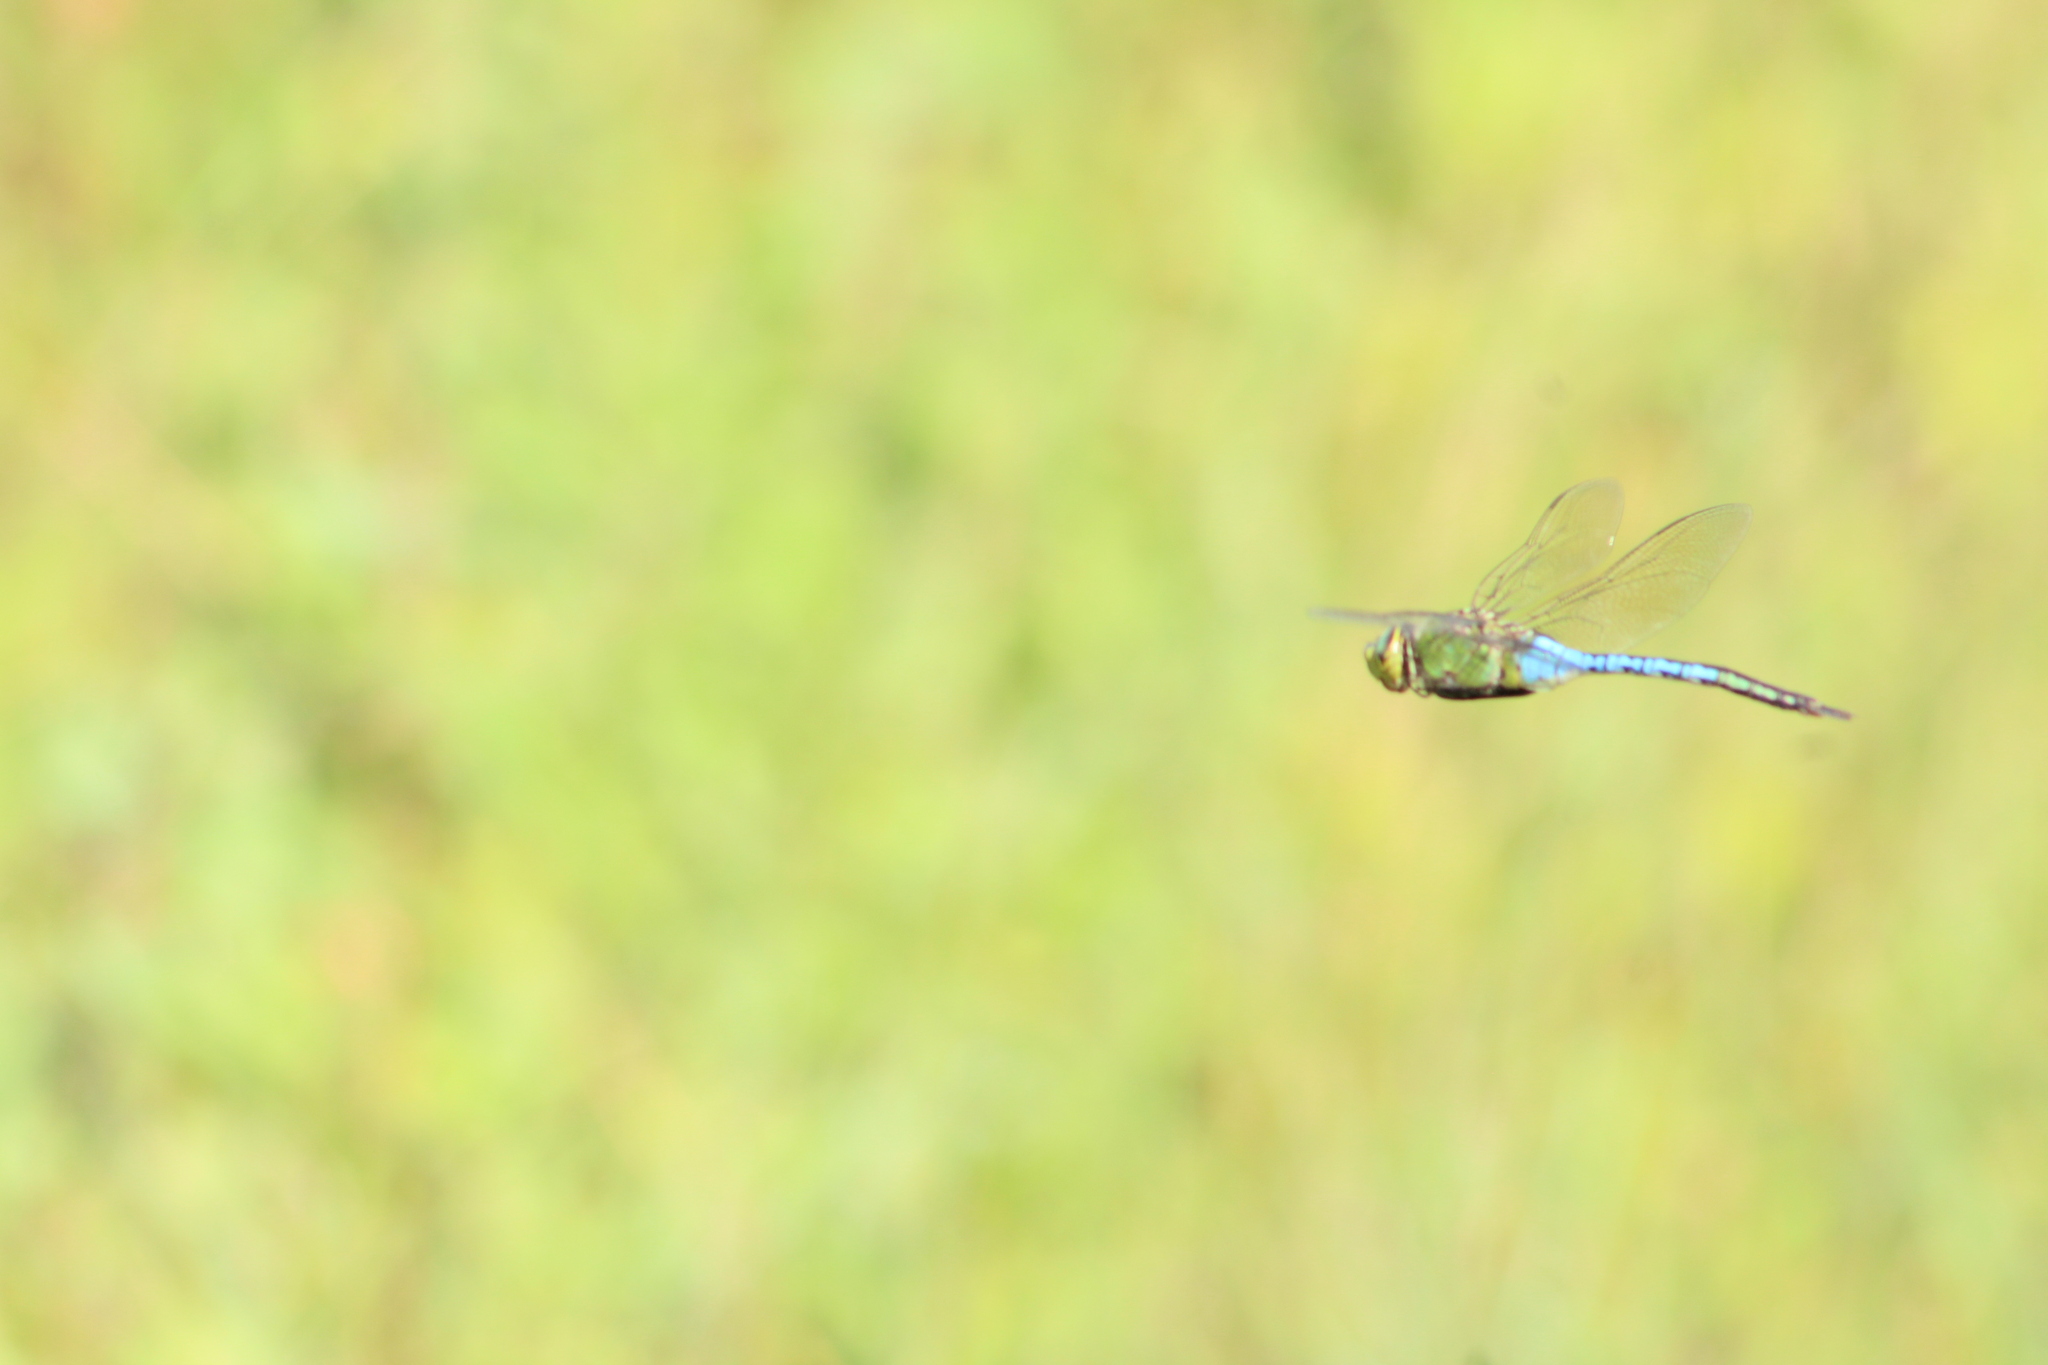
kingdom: Animalia
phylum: Arthropoda
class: Insecta
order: Odonata
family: Aeshnidae
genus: Anax
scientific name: Anax junius
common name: Common green darner
